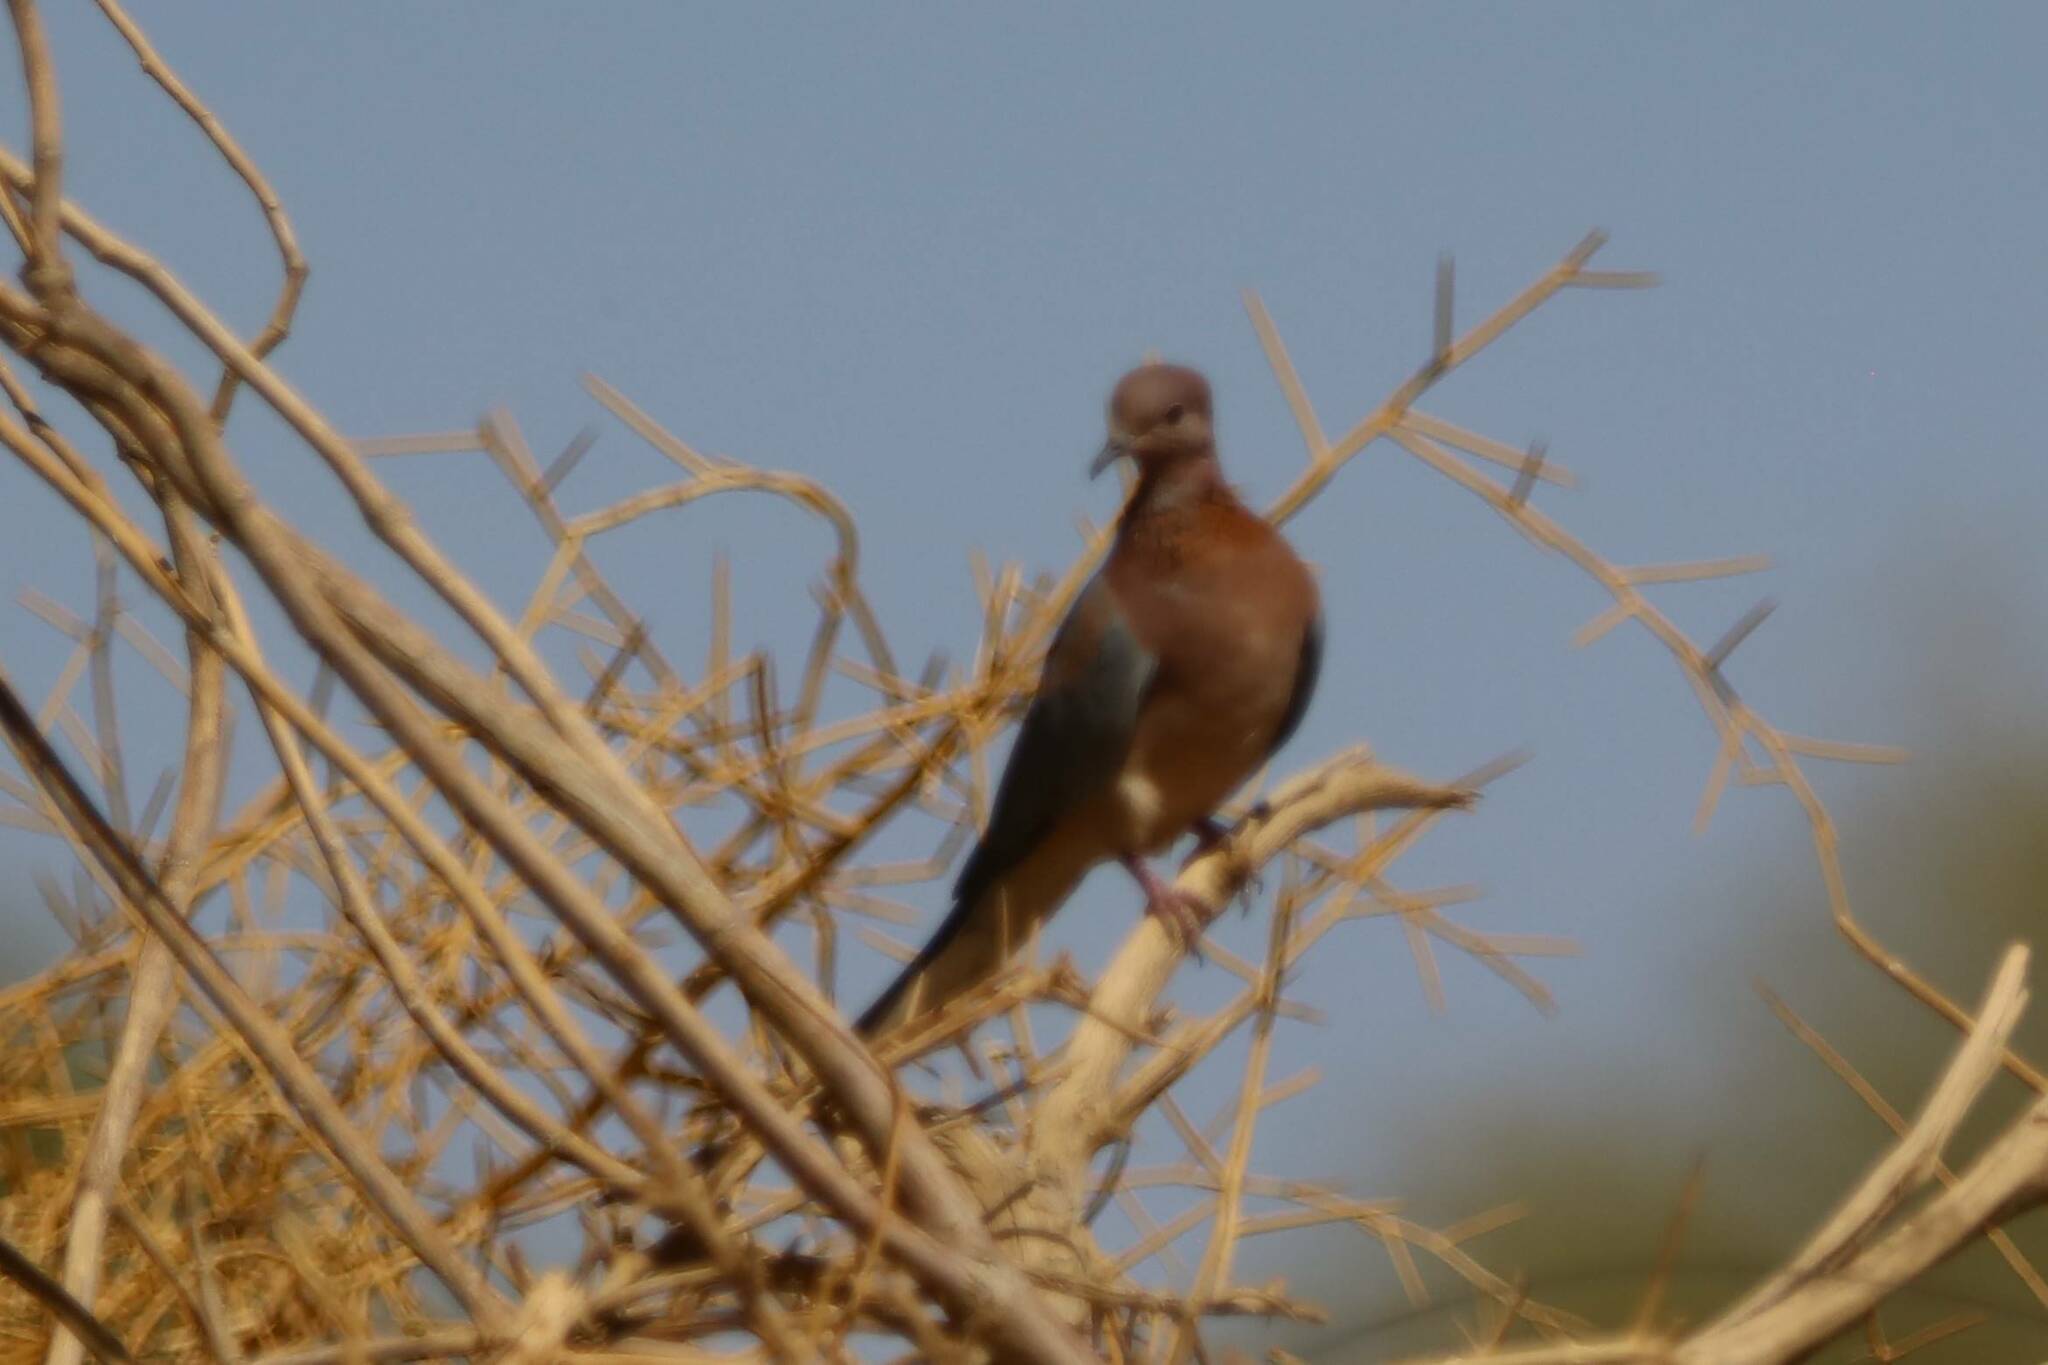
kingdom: Animalia
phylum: Chordata
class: Aves
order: Columbiformes
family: Columbidae
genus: Spilopelia
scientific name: Spilopelia senegalensis
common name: Laughing dove
